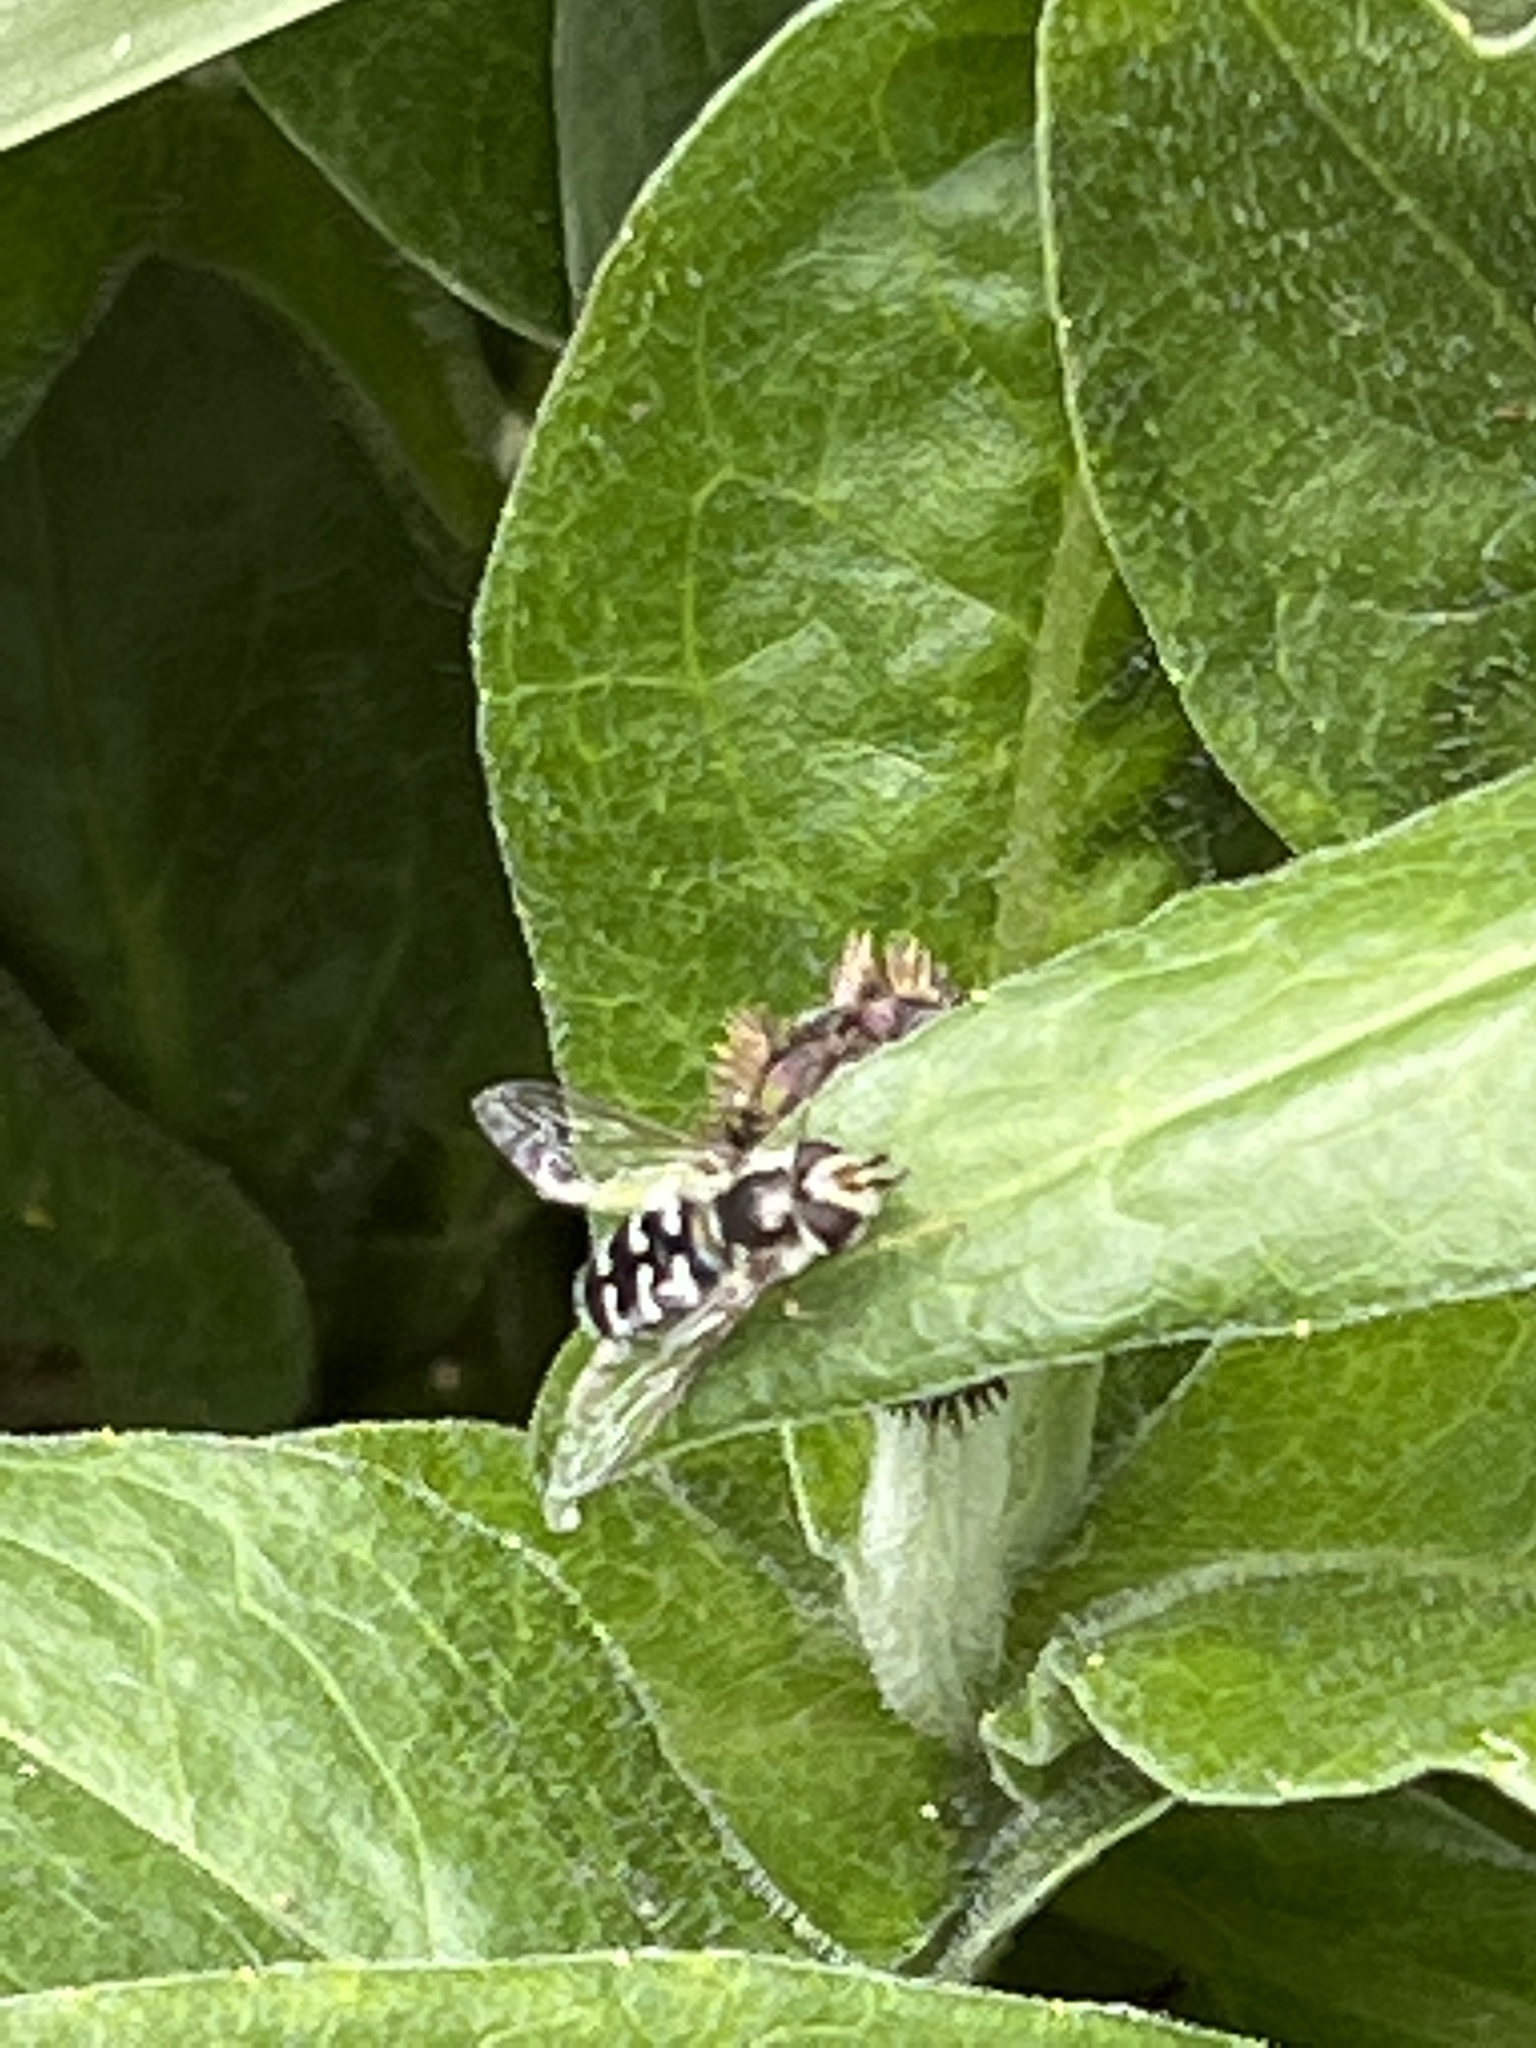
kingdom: Animalia
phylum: Arthropoda
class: Insecta
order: Diptera
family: Syrphidae
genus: Scaeva
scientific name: Scaeva affinis
